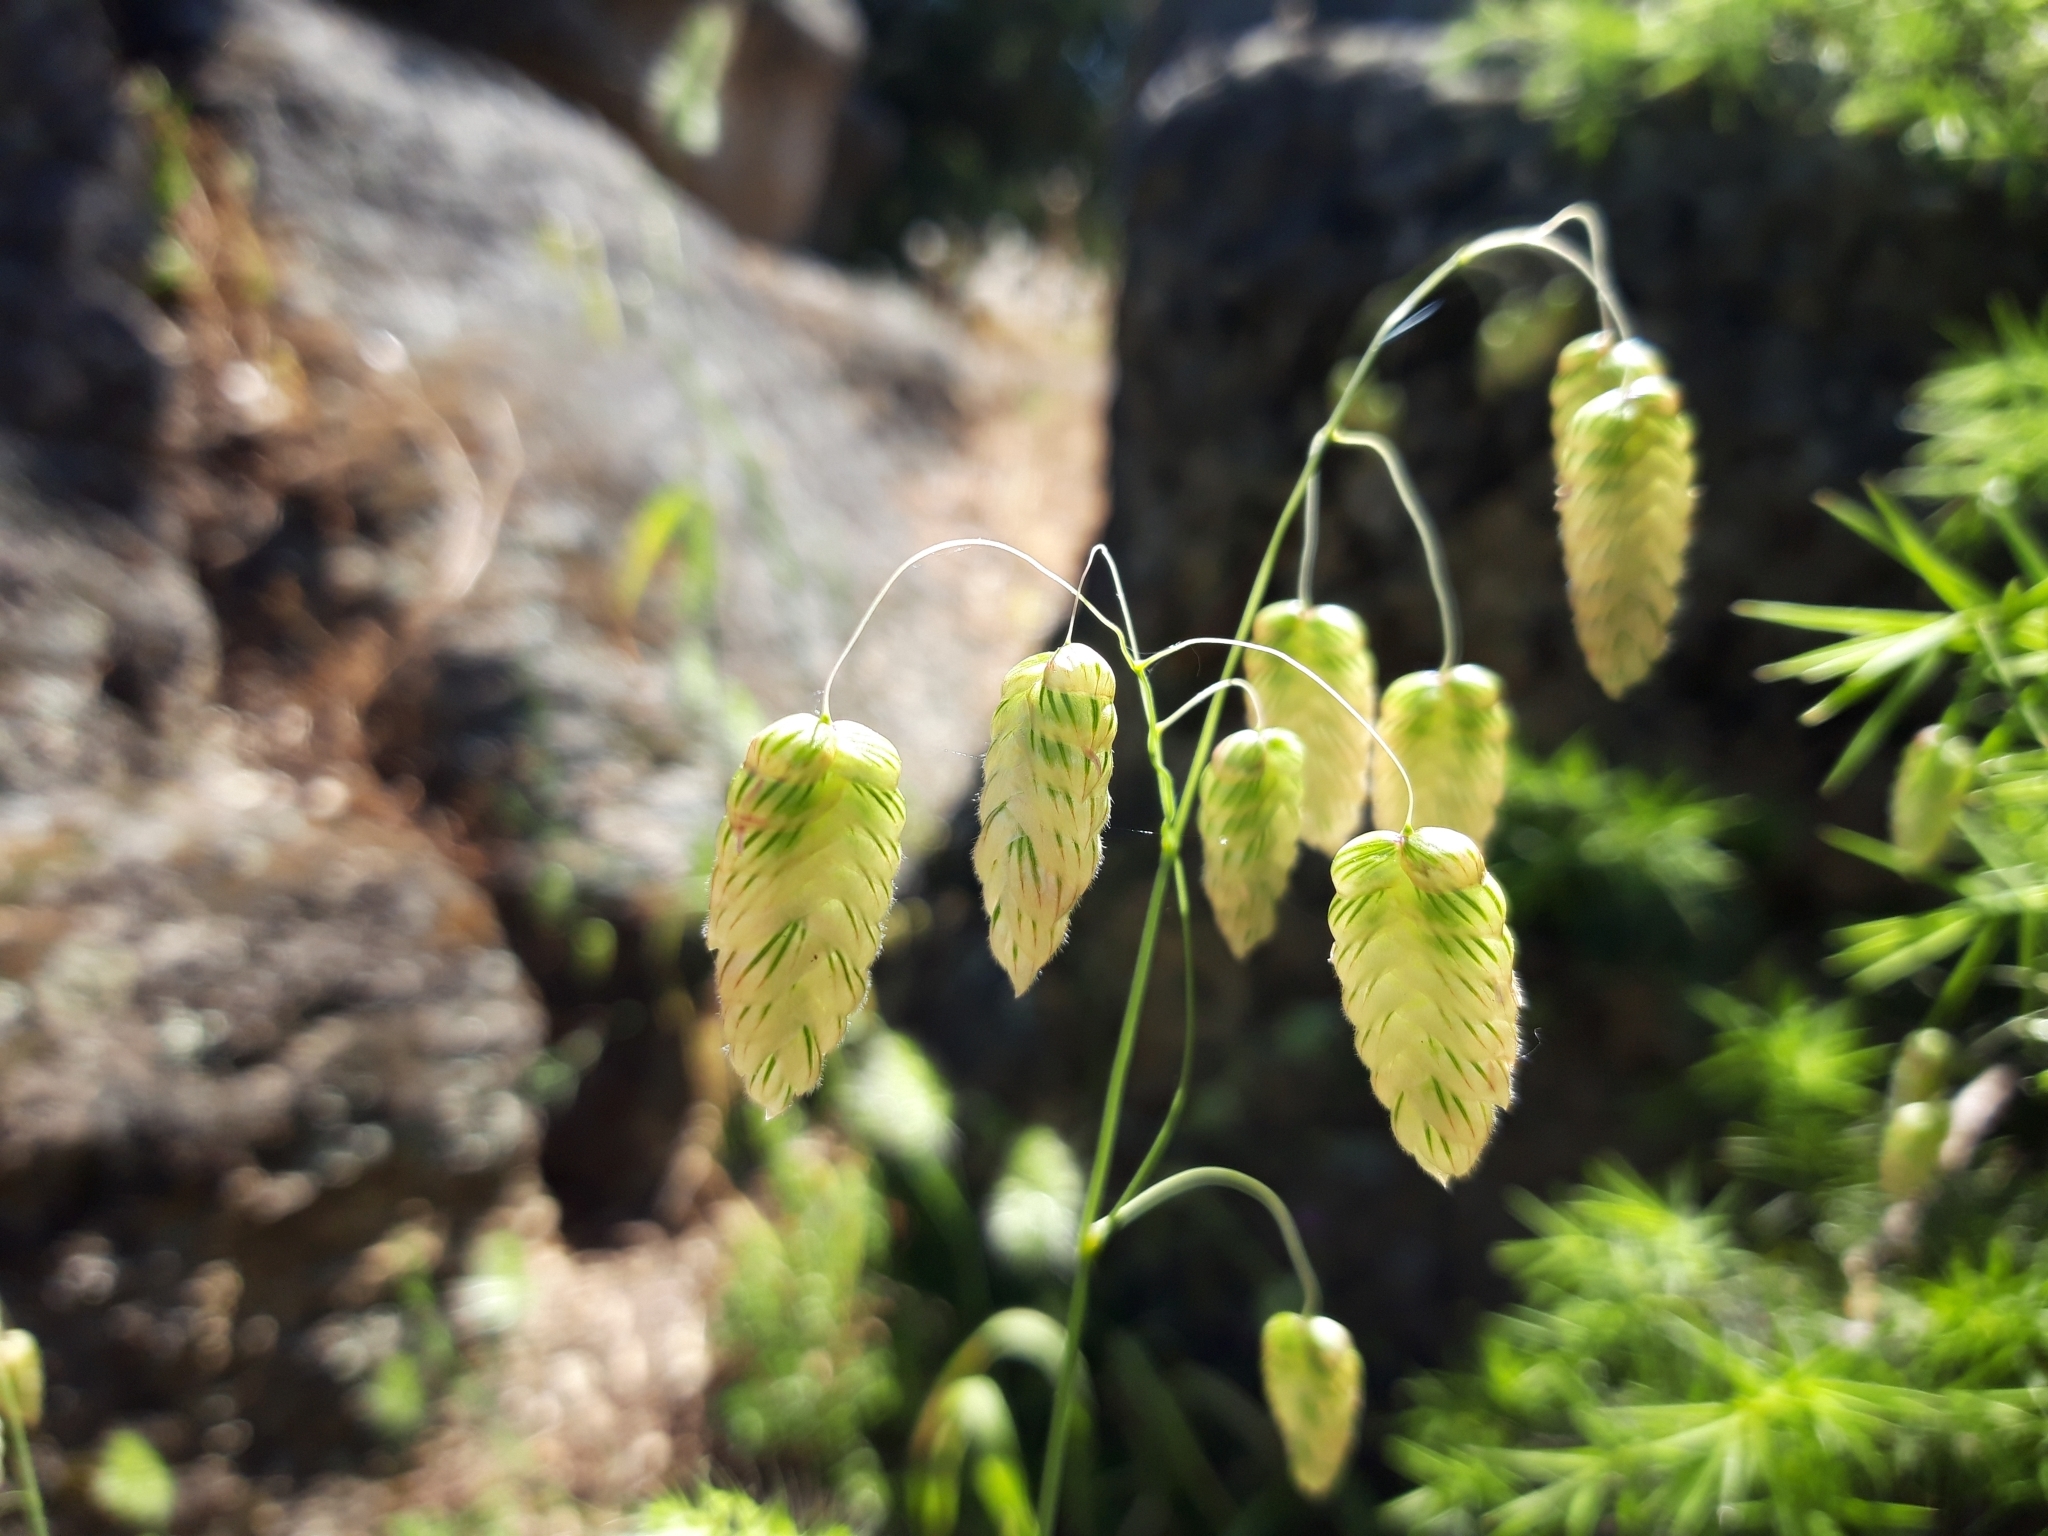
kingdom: Plantae
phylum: Tracheophyta
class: Liliopsida
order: Poales
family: Poaceae
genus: Briza
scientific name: Briza maxima
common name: Big quakinggrass
